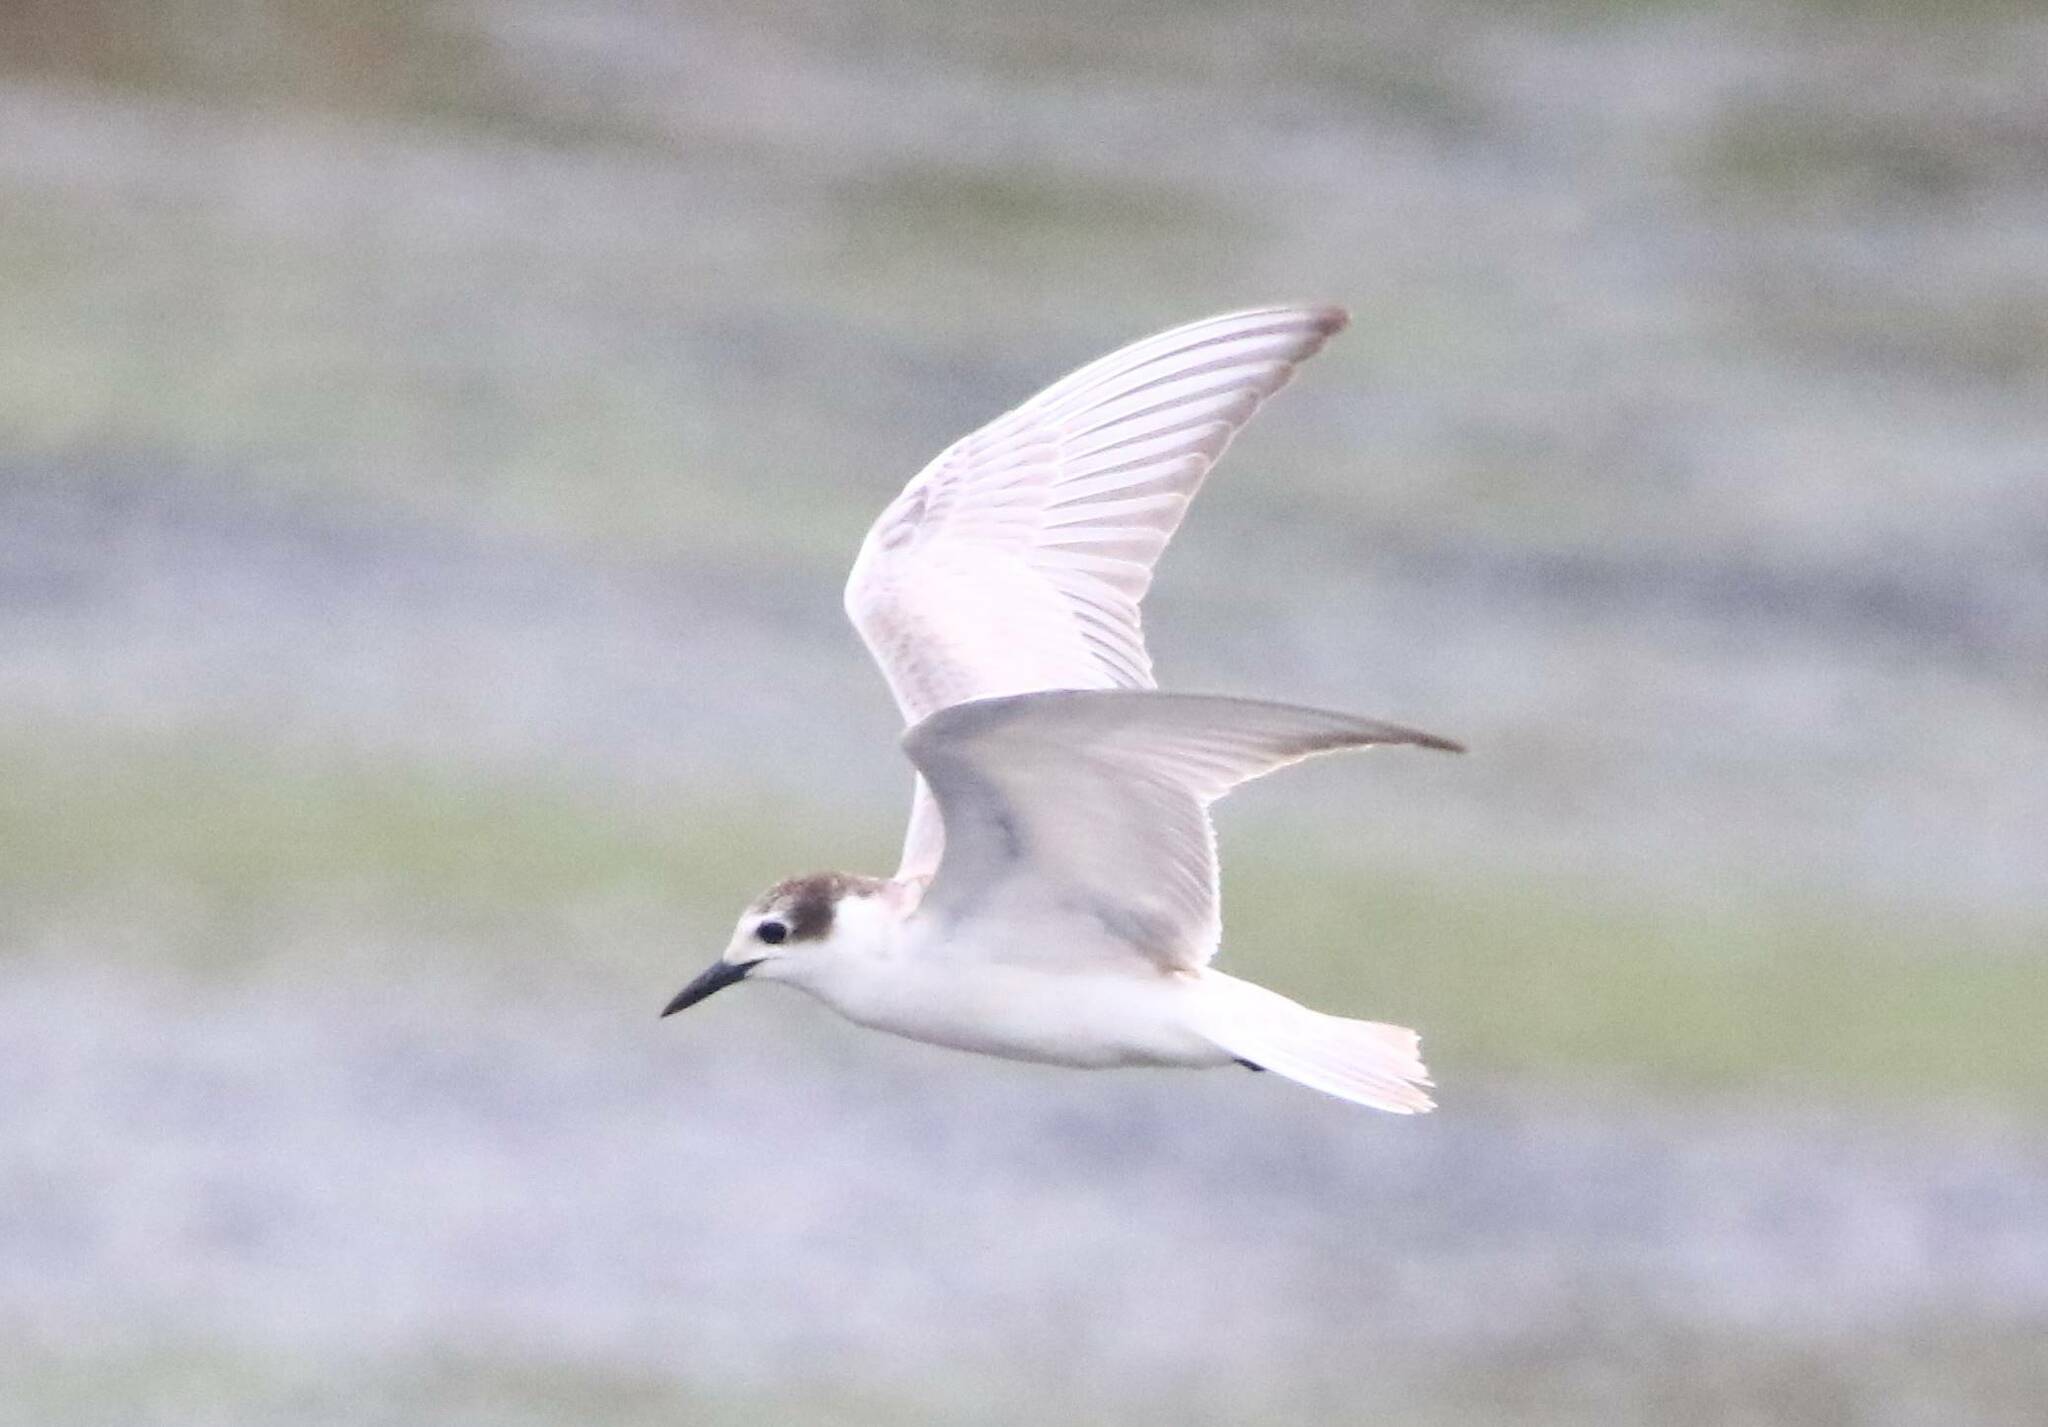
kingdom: Animalia
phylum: Chordata
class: Aves
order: Charadriiformes
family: Laridae
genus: Chlidonias
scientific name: Chlidonias hybrida
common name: Whiskered tern
